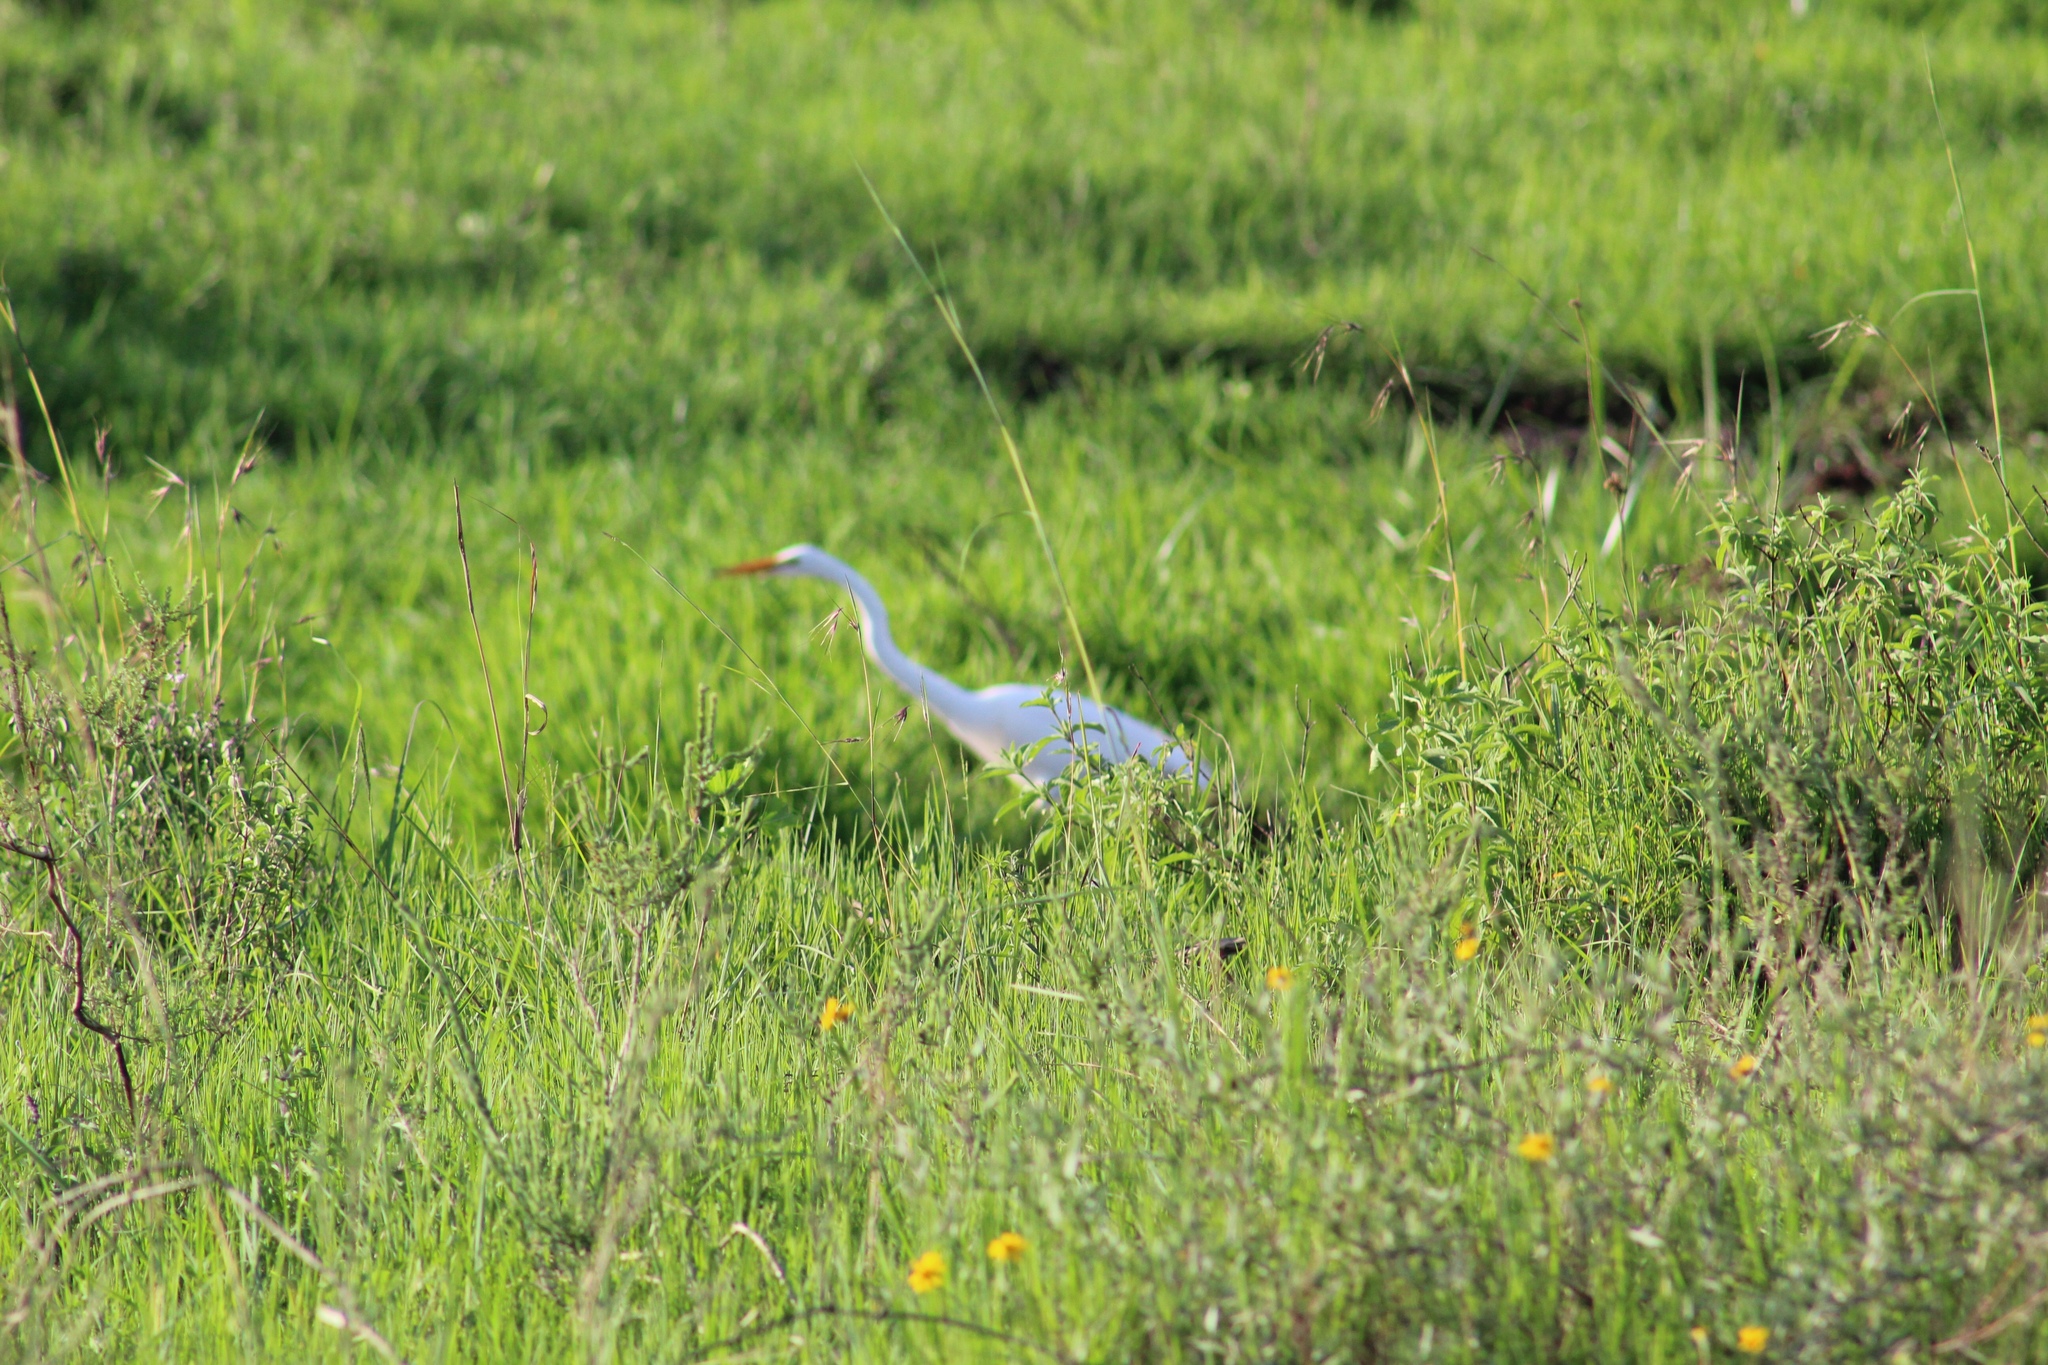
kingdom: Animalia
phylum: Chordata
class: Aves
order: Pelecaniformes
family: Ardeidae
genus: Ardea
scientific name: Ardea alba
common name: Great egret
